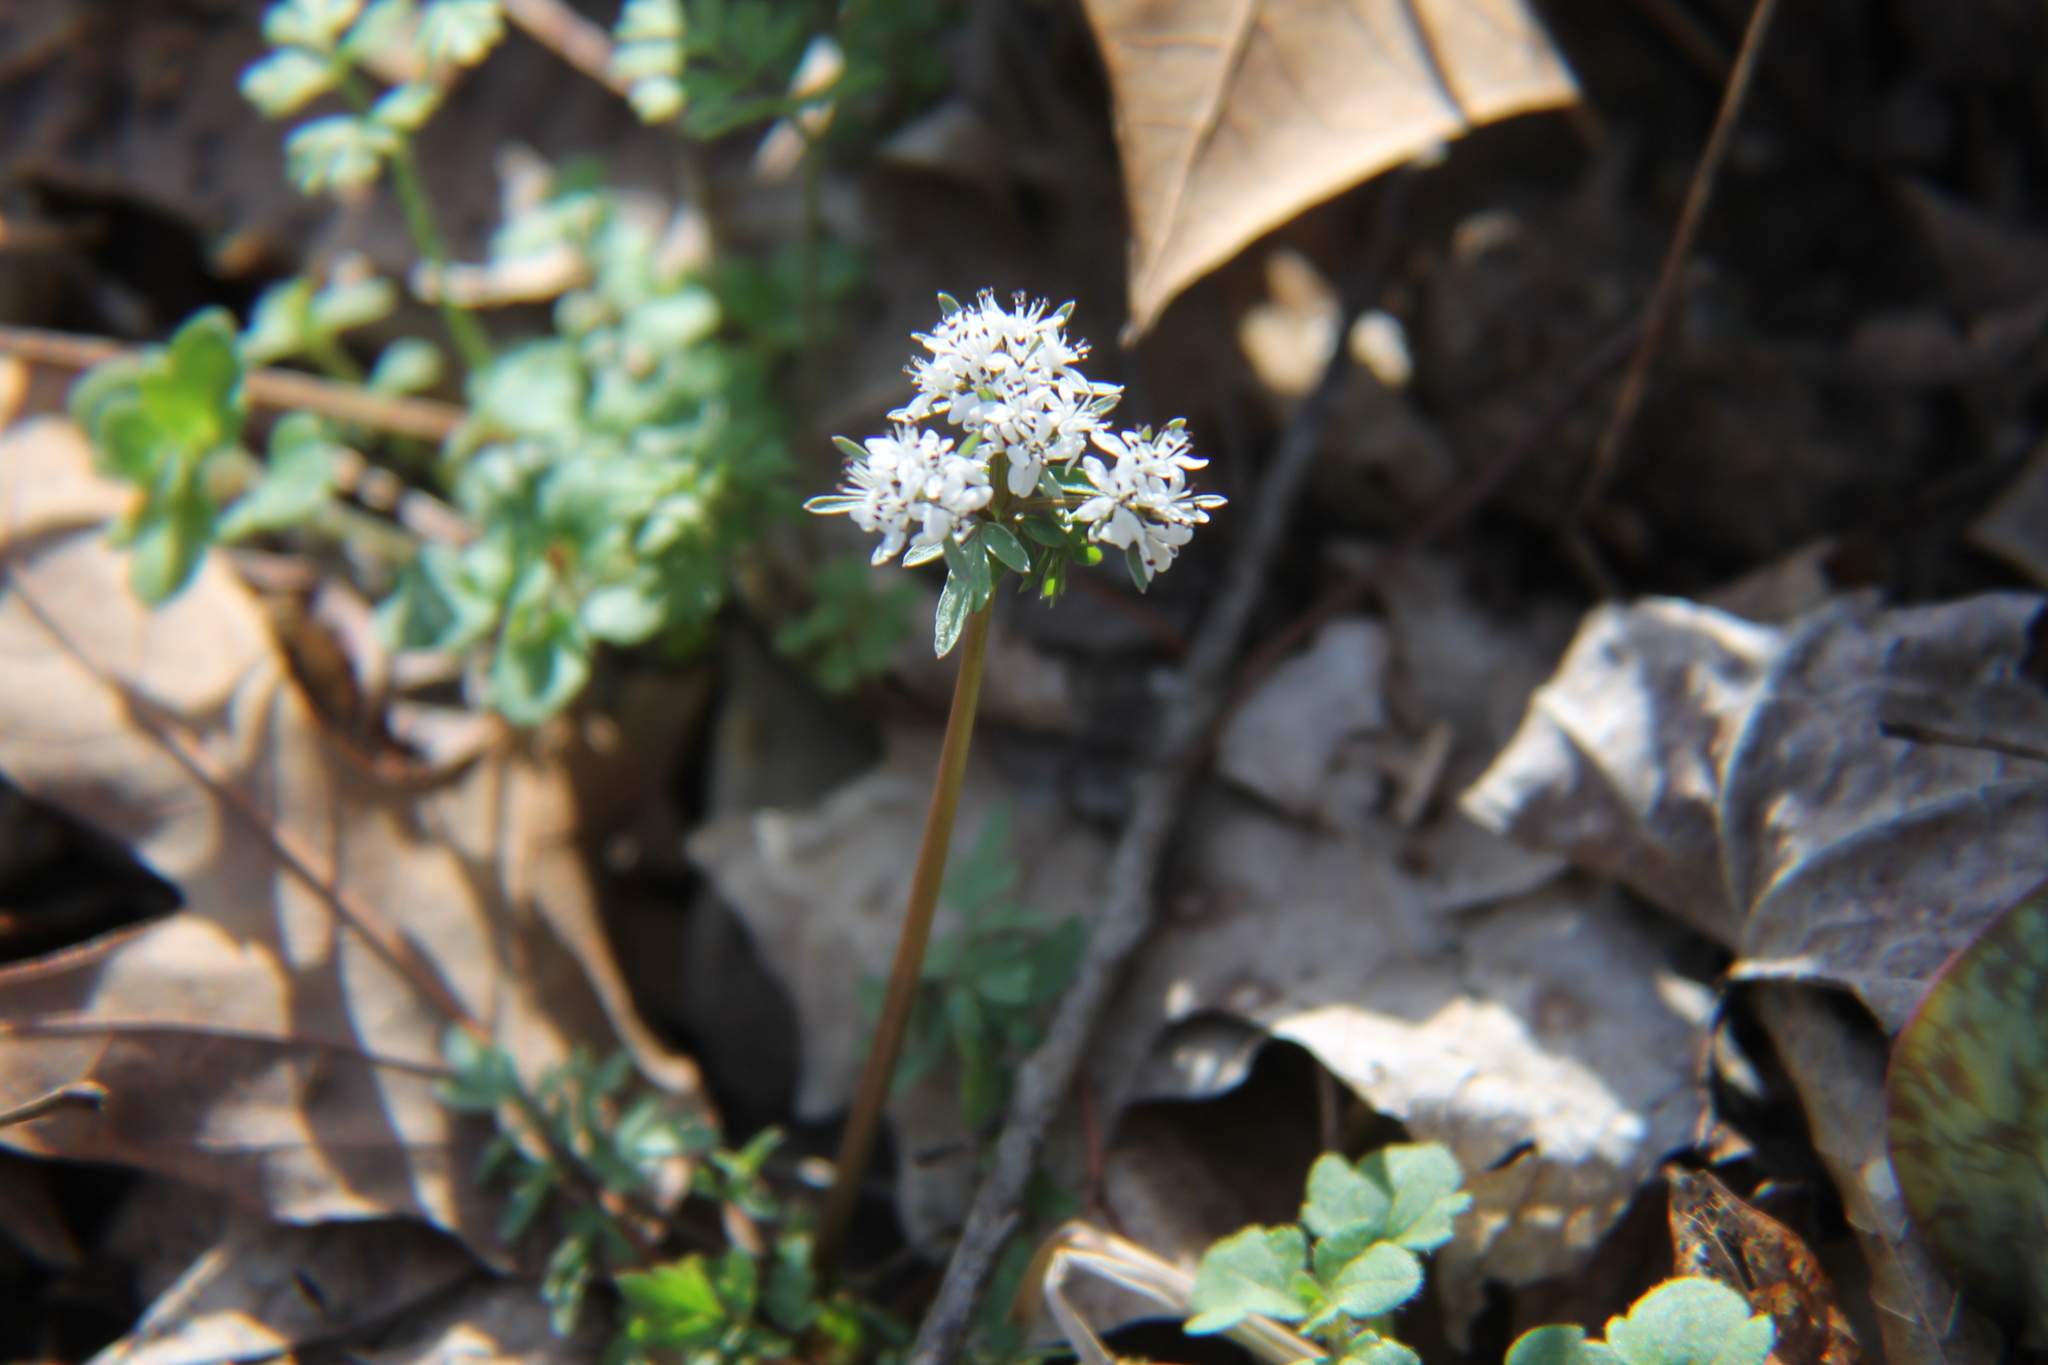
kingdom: Plantae
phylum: Tracheophyta
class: Magnoliopsida
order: Apiales
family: Apiaceae
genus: Erigenia
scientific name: Erigenia bulbosa
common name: Pepper-and-salt
